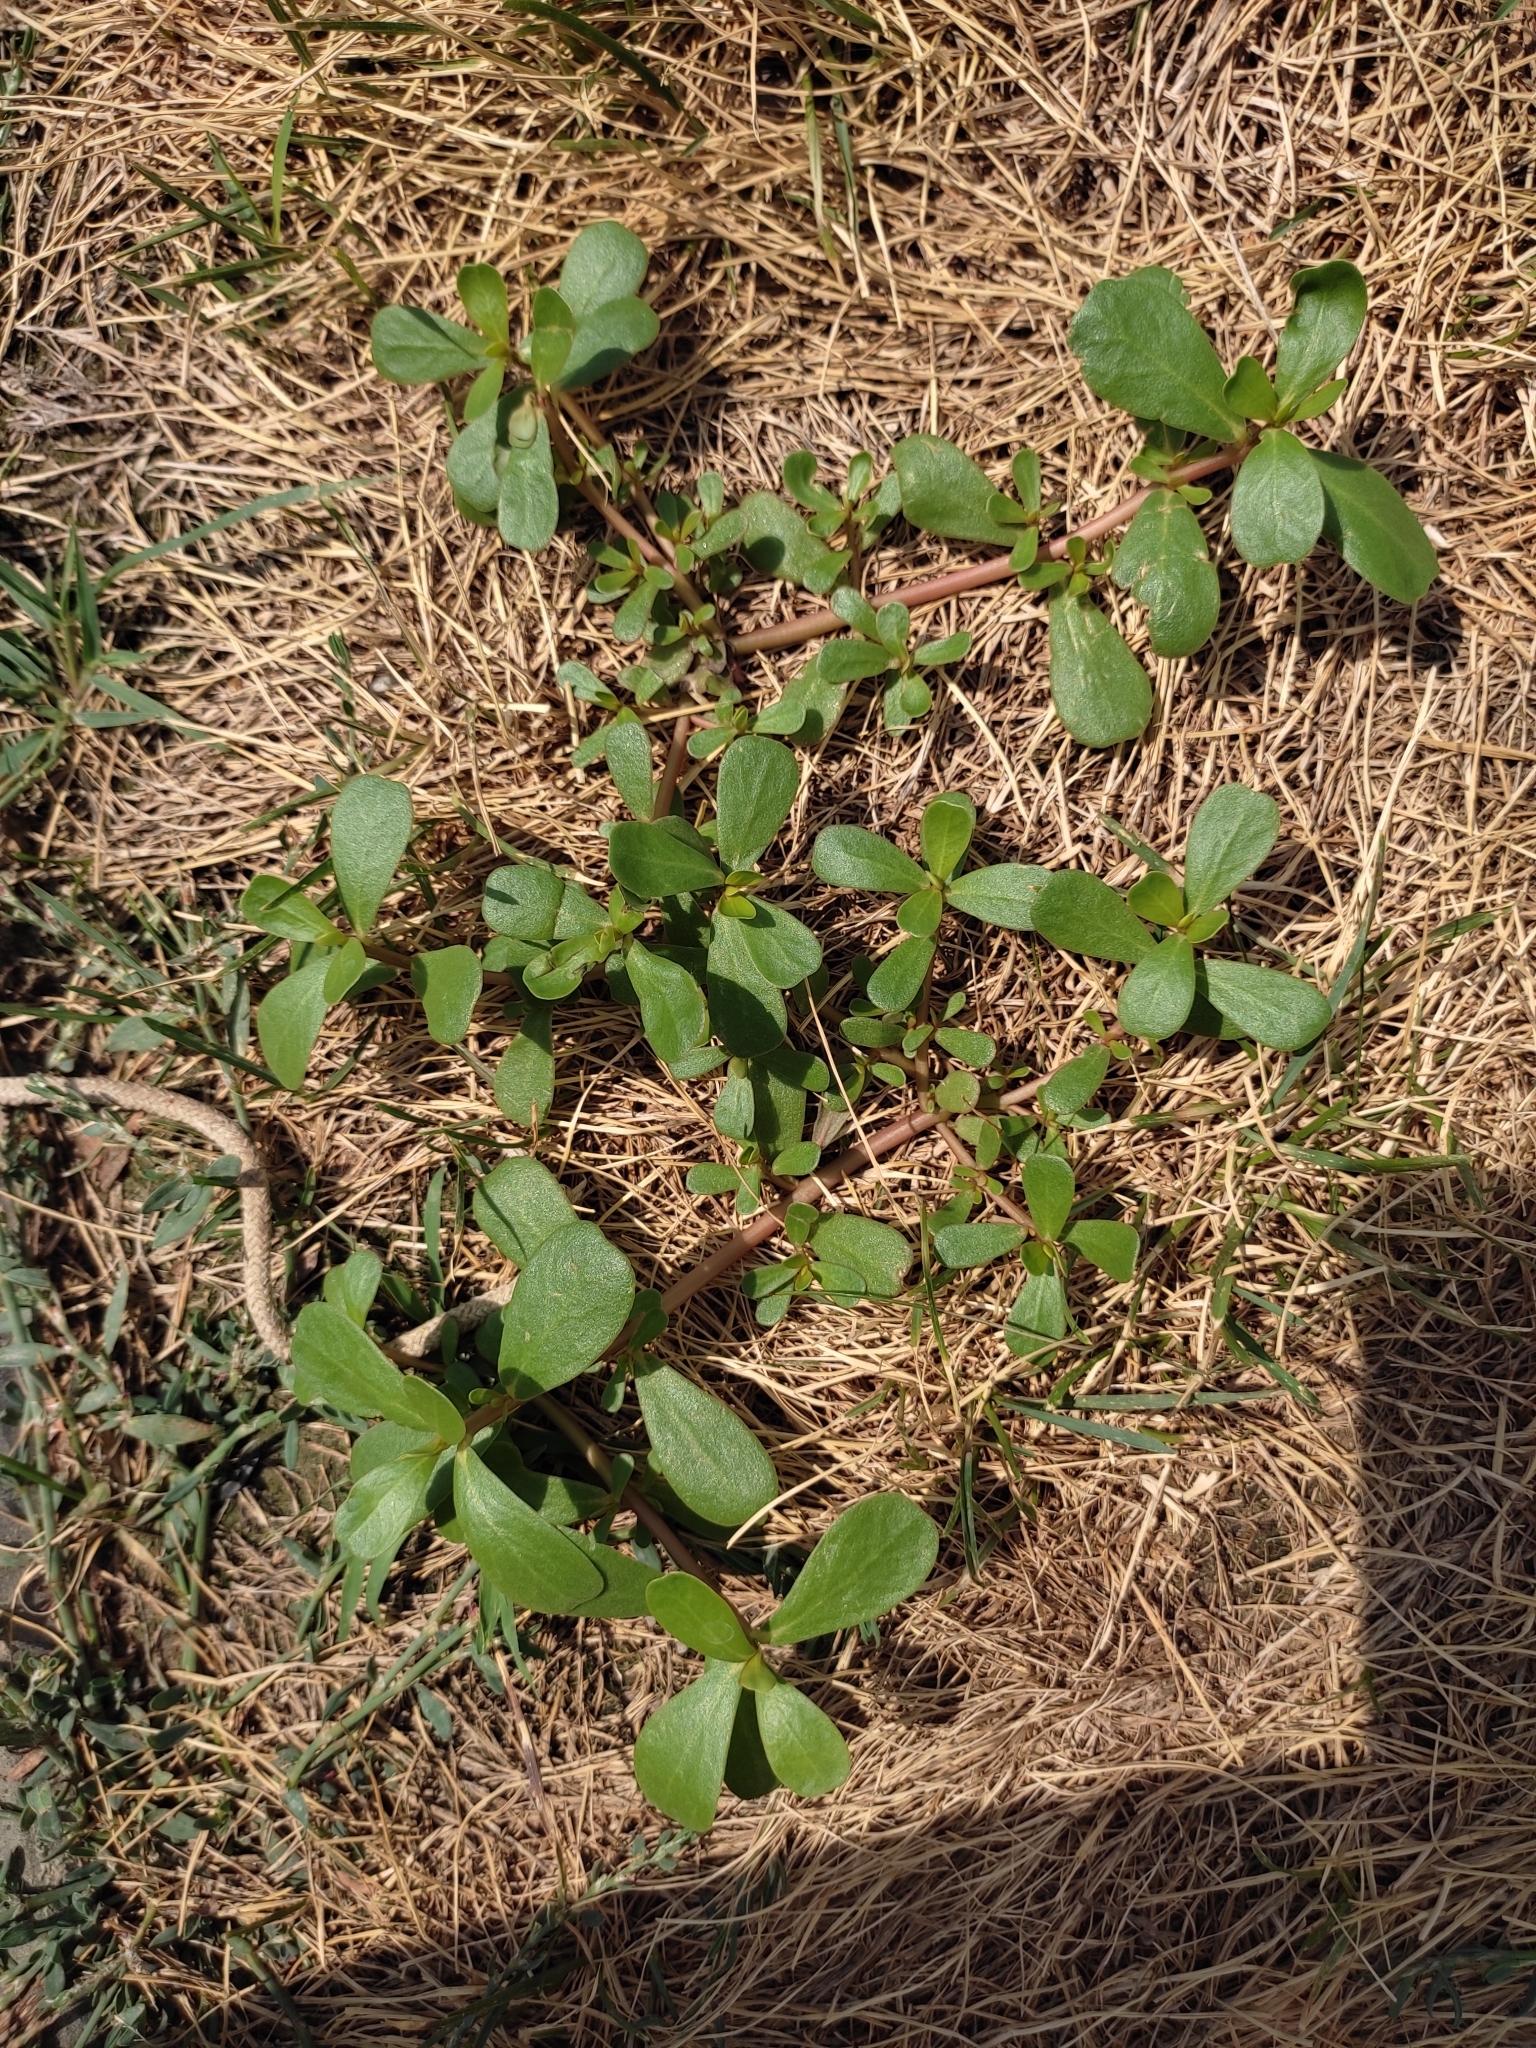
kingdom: Plantae
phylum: Tracheophyta
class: Magnoliopsida
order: Caryophyllales
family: Portulacaceae
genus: Portulaca
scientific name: Portulaca oleracea
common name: Common purslane
